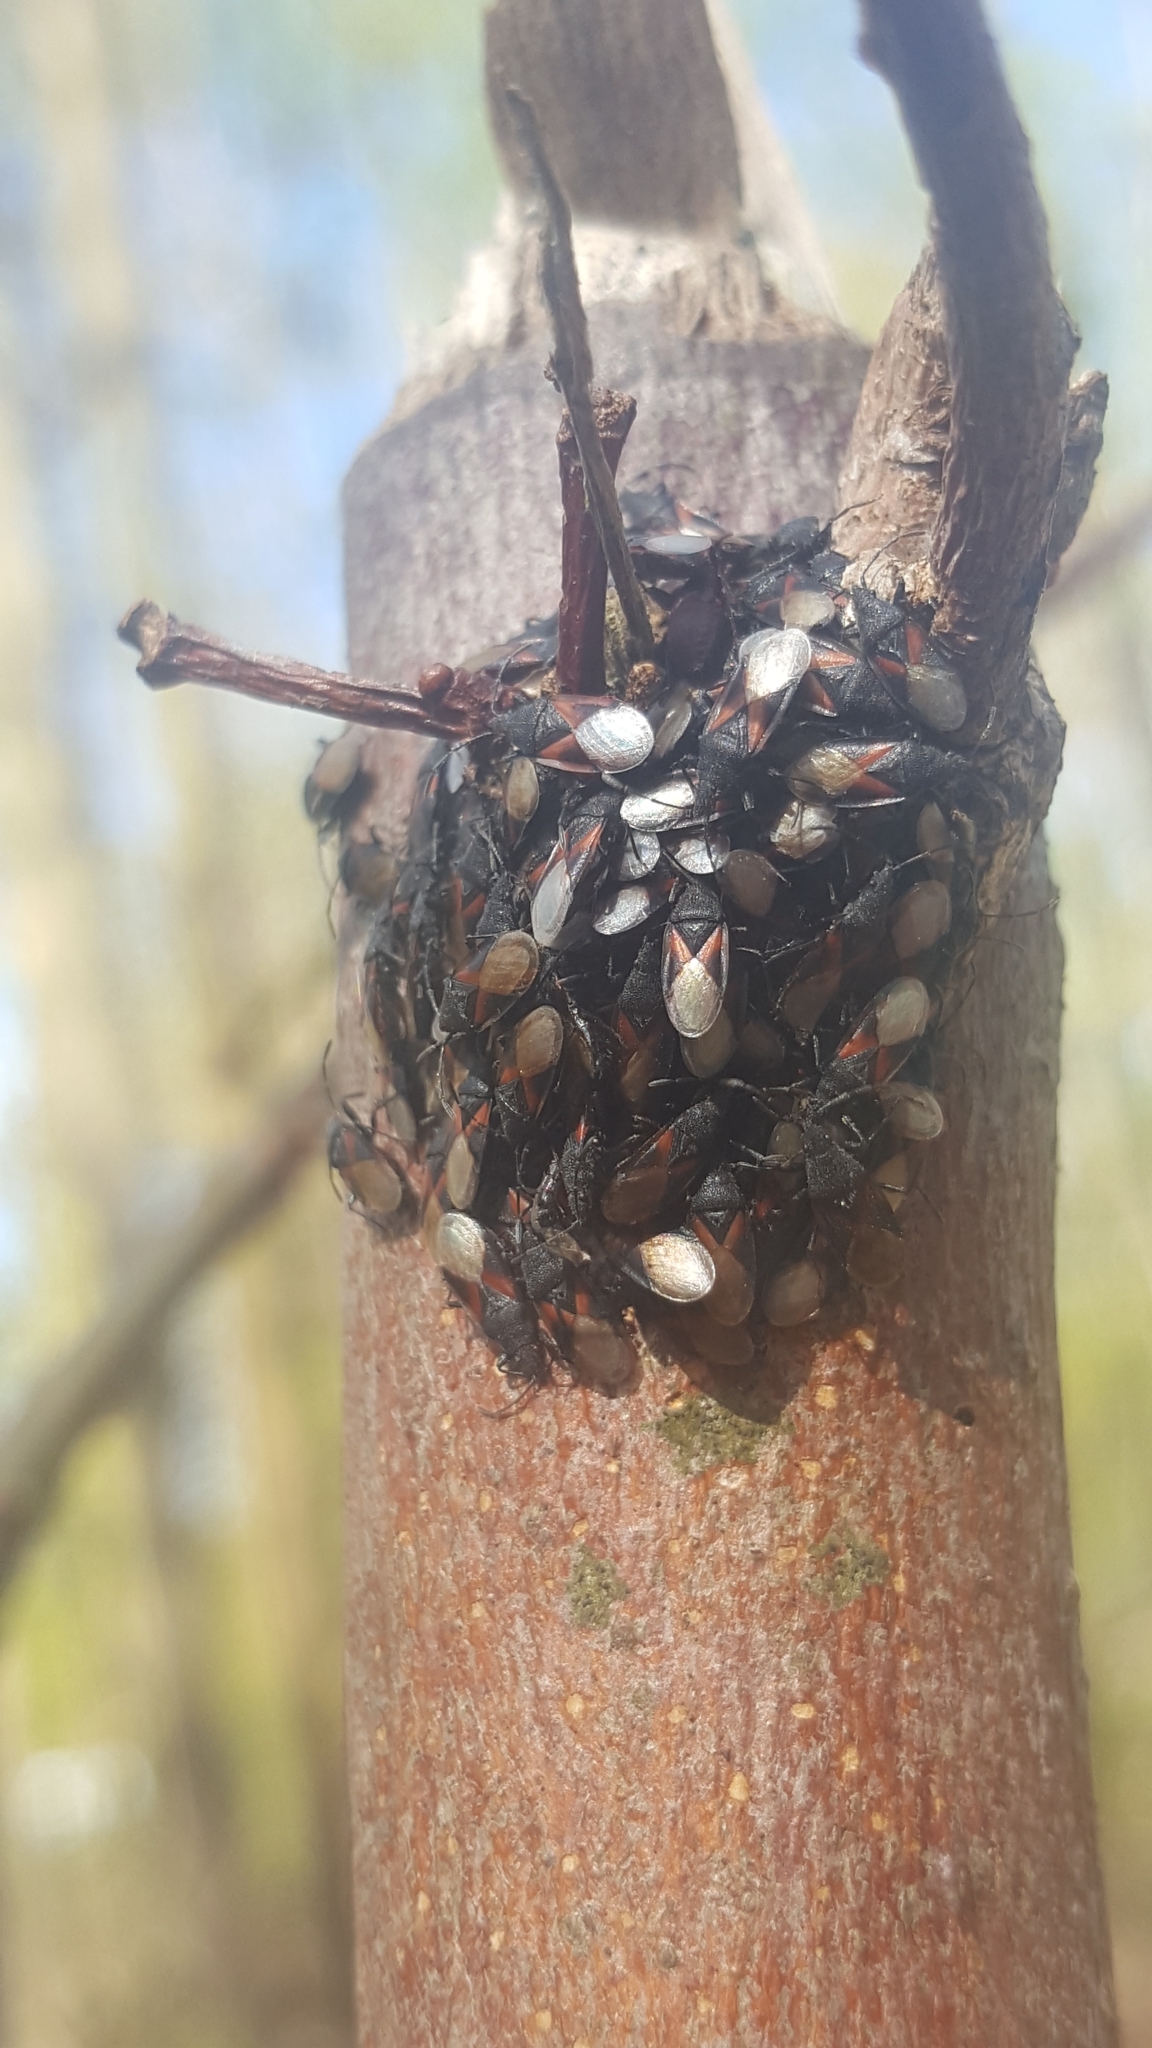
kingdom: Animalia
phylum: Arthropoda
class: Insecta
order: Hemiptera
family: Oxycarenidae
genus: Oxycarenus
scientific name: Oxycarenus lavaterae
